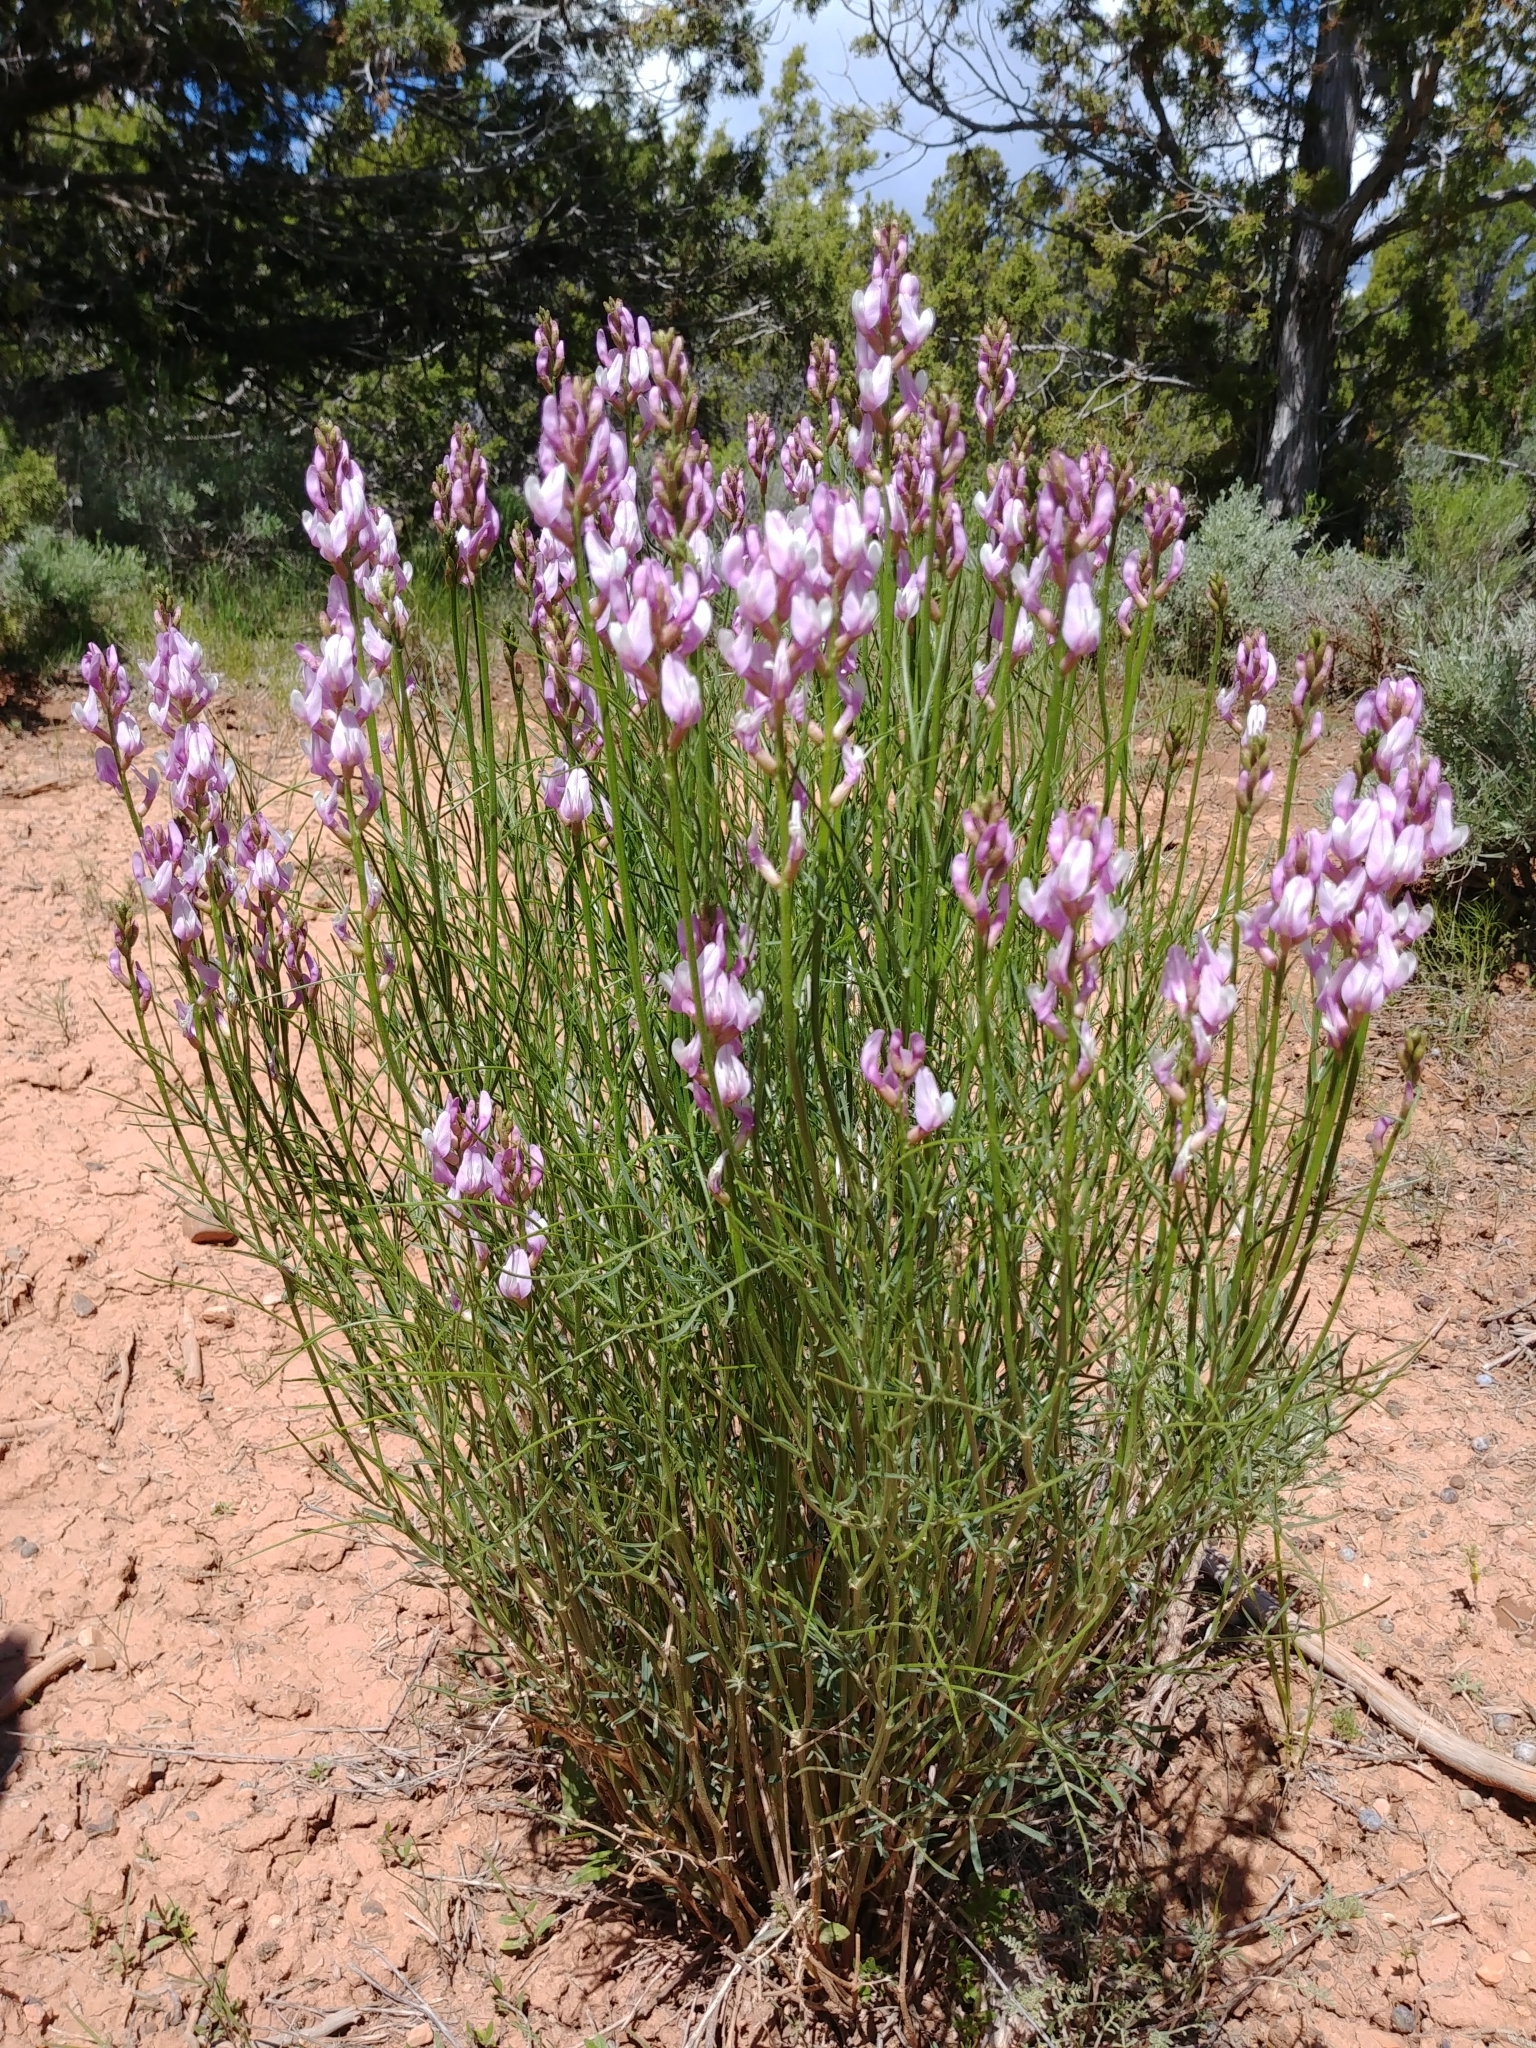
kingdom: Plantae
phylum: Tracheophyta
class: Magnoliopsida
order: Fabales
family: Fabaceae
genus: Astragalus
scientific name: Astragalus toanus
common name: Toano milk-vetch
